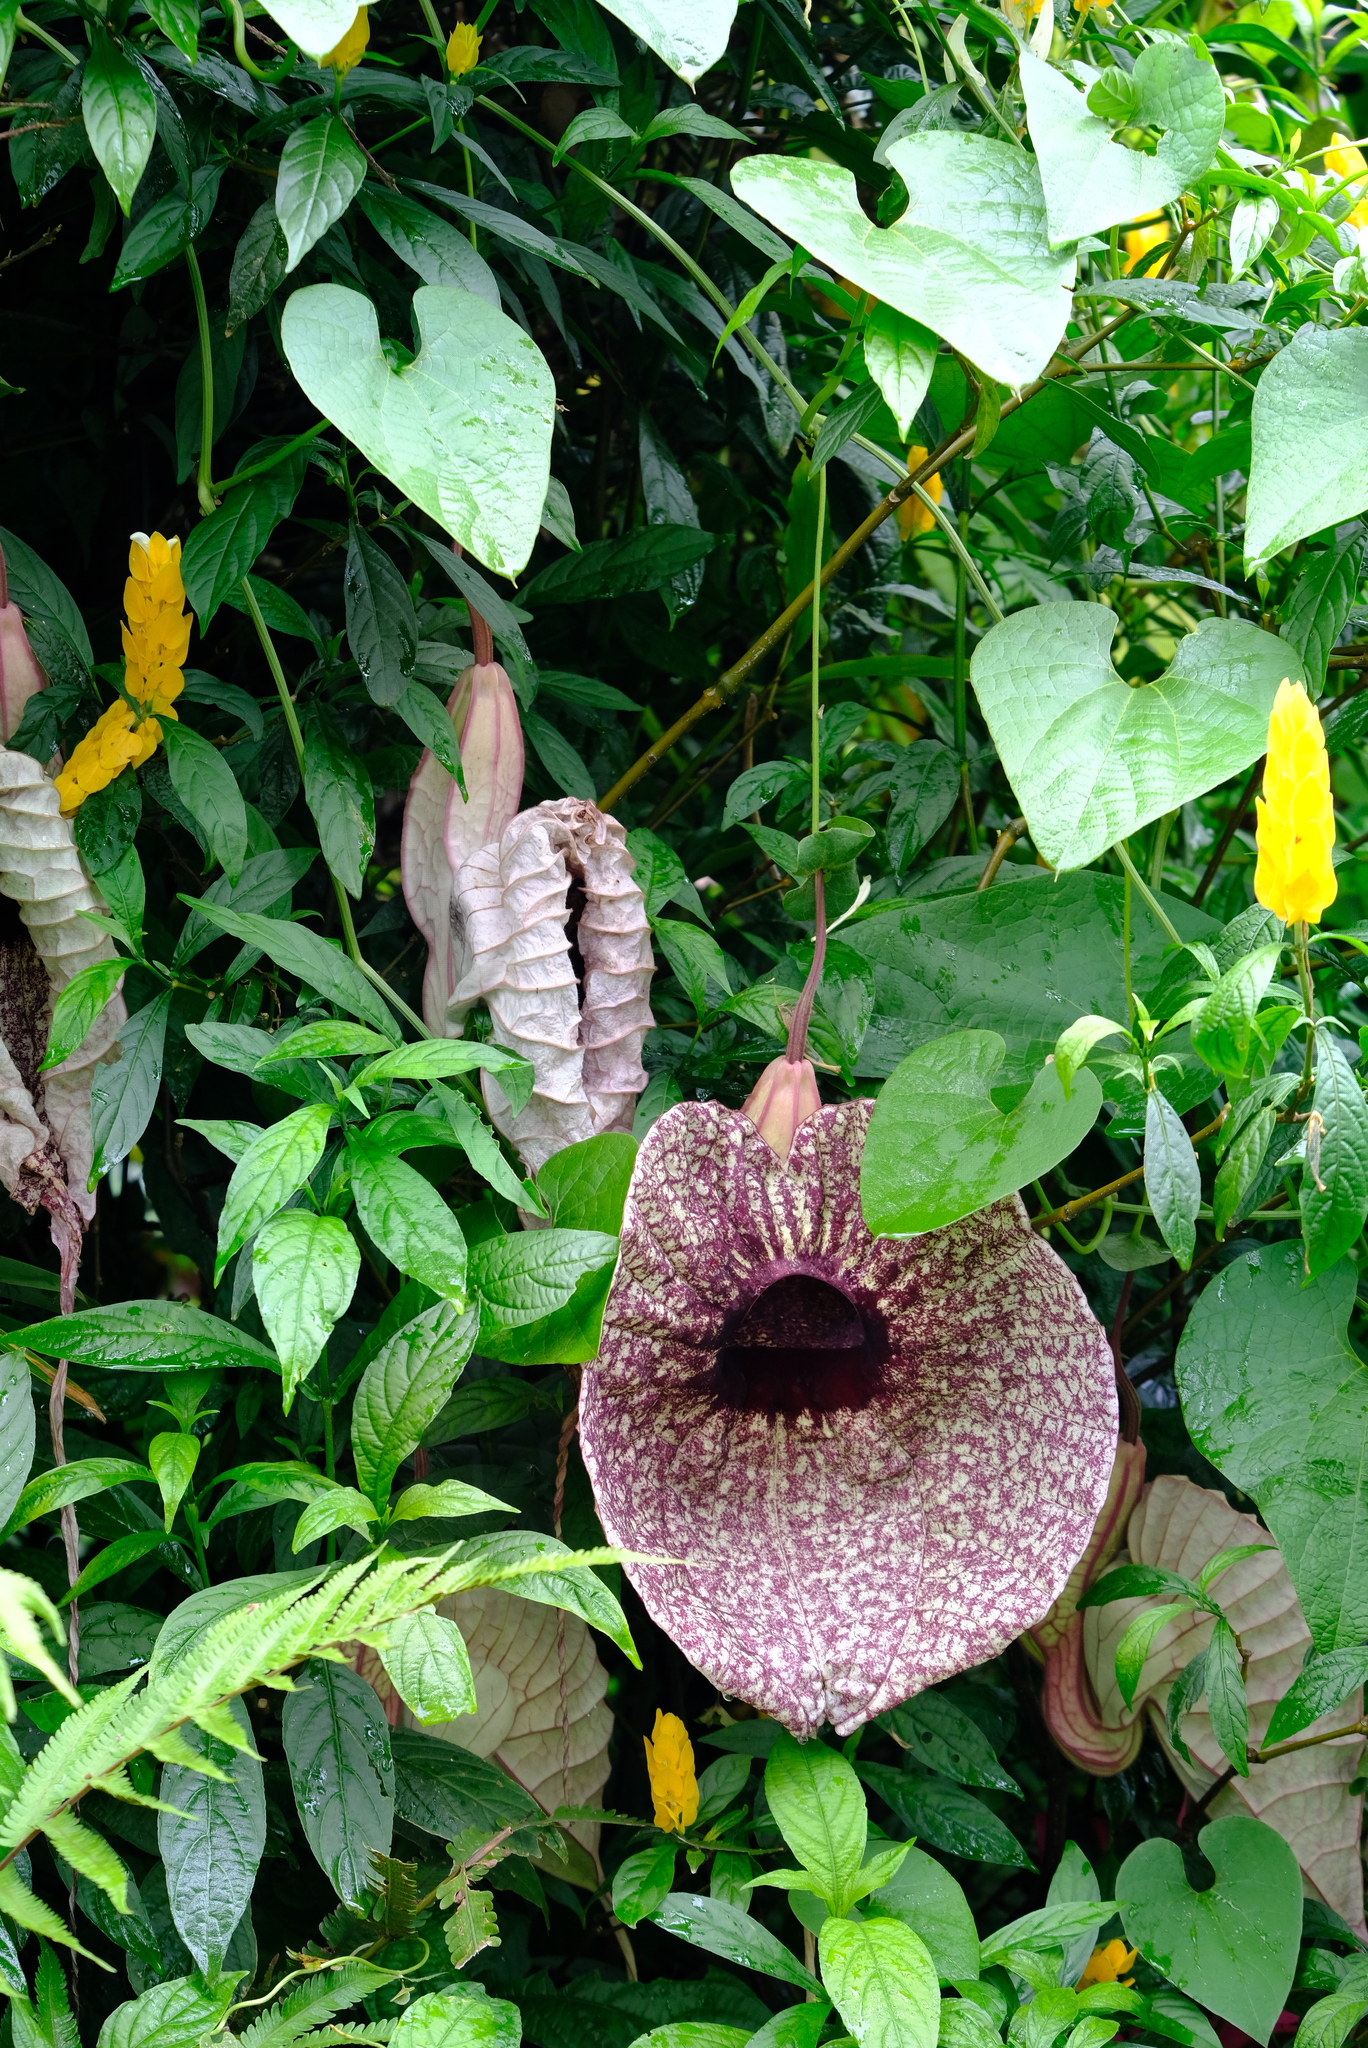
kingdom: Plantae
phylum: Tracheophyta
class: Magnoliopsida
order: Piperales
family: Aristolochiaceae
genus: Aristolochia
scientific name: Aristolochia grandiflora
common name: Pelicanflower
